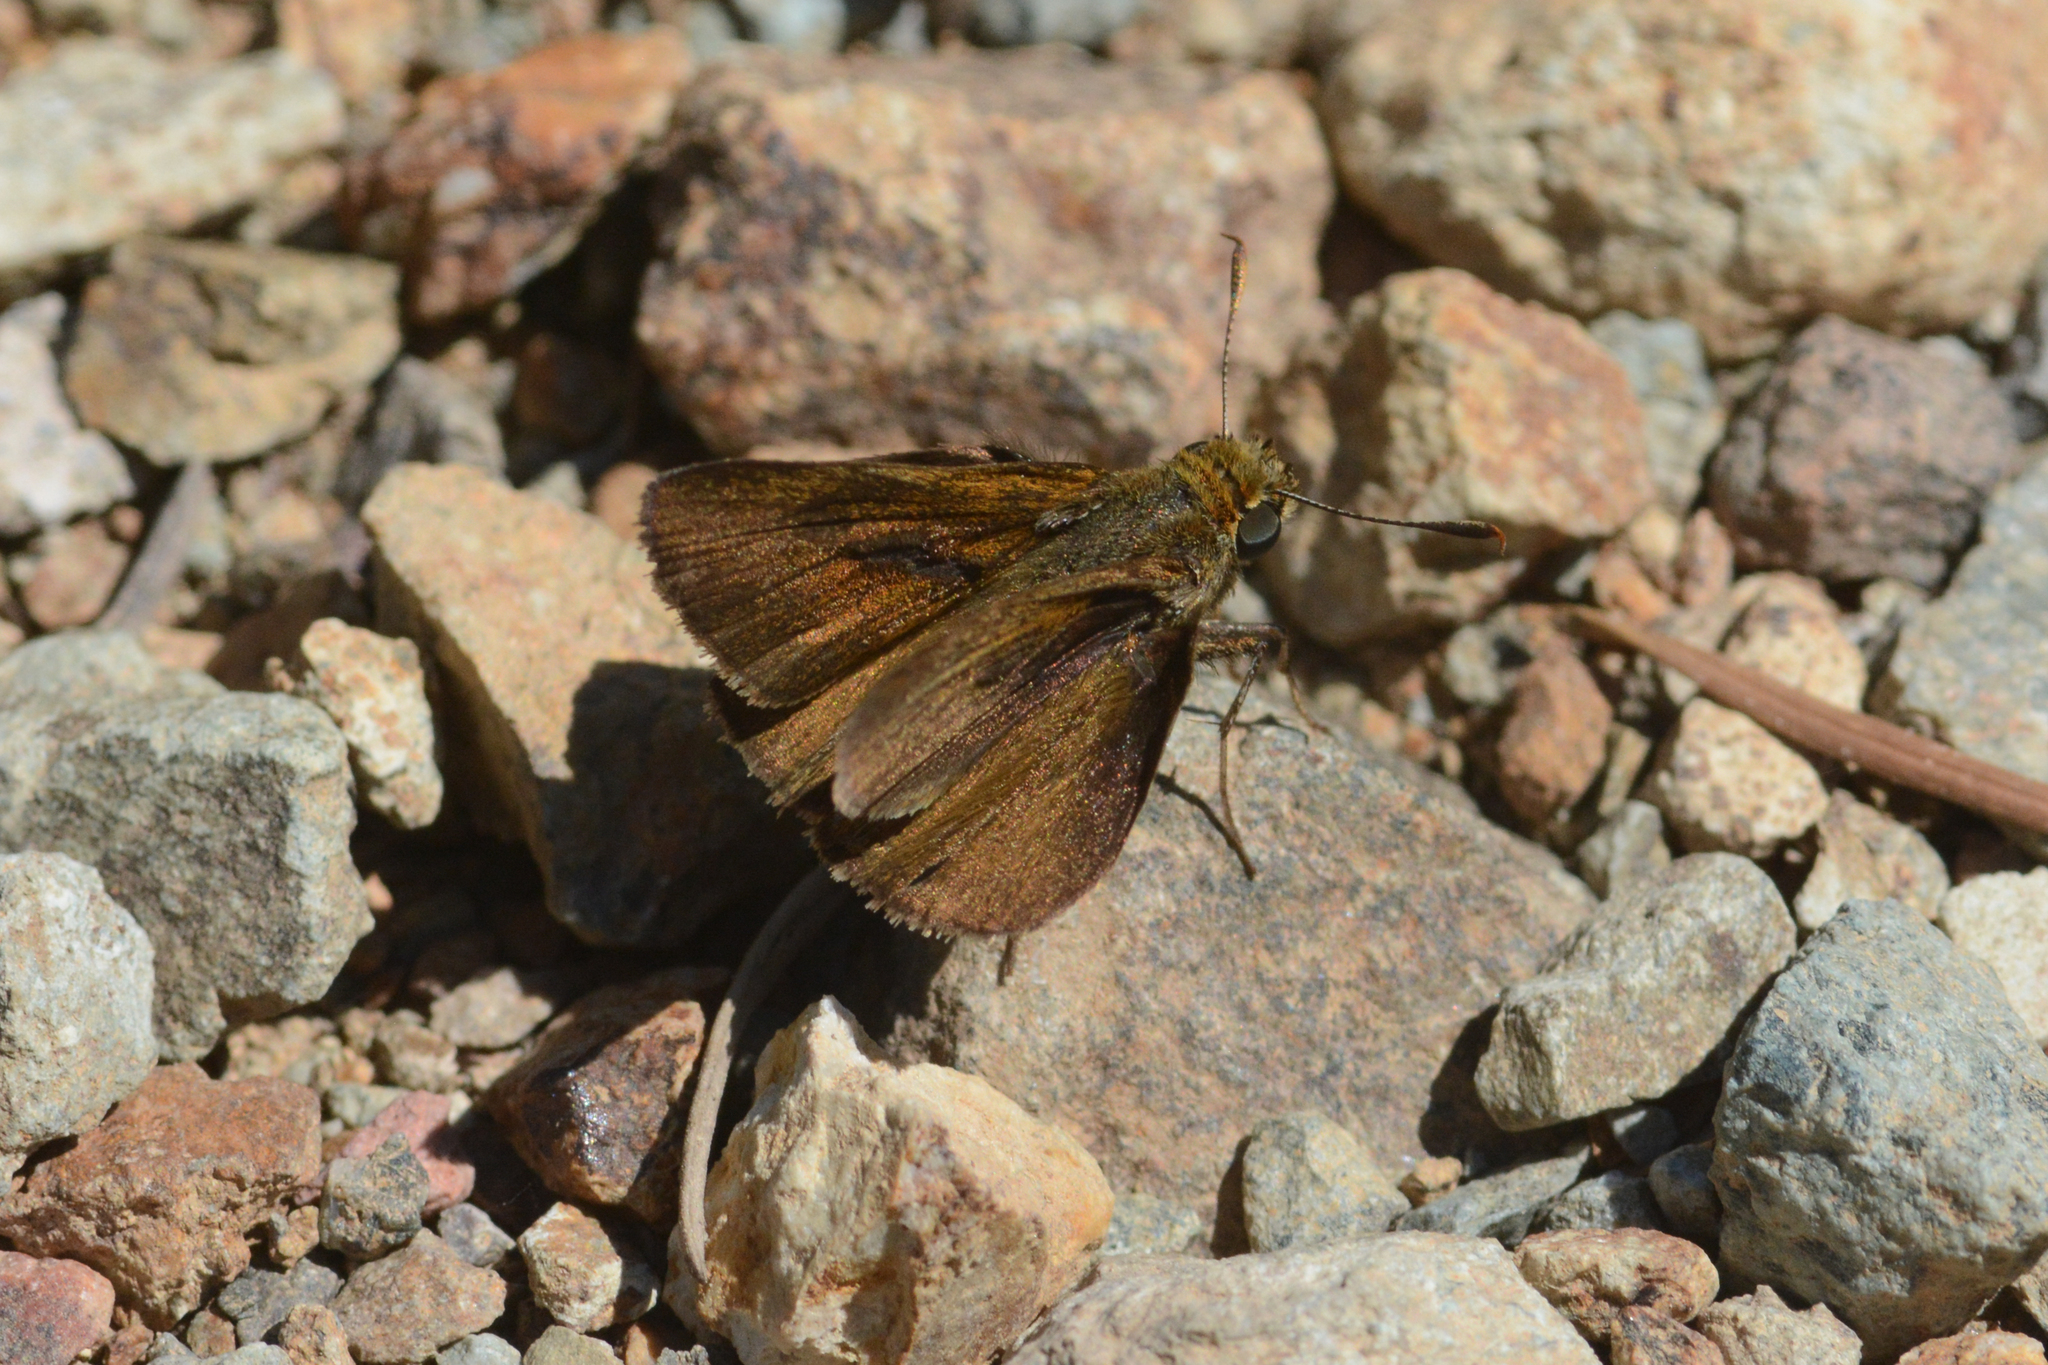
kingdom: Animalia
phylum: Arthropoda
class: Insecta
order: Lepidoptera
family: Hesperiidae
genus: Euphyes
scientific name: Euphyes vestris
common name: Dun skipper
